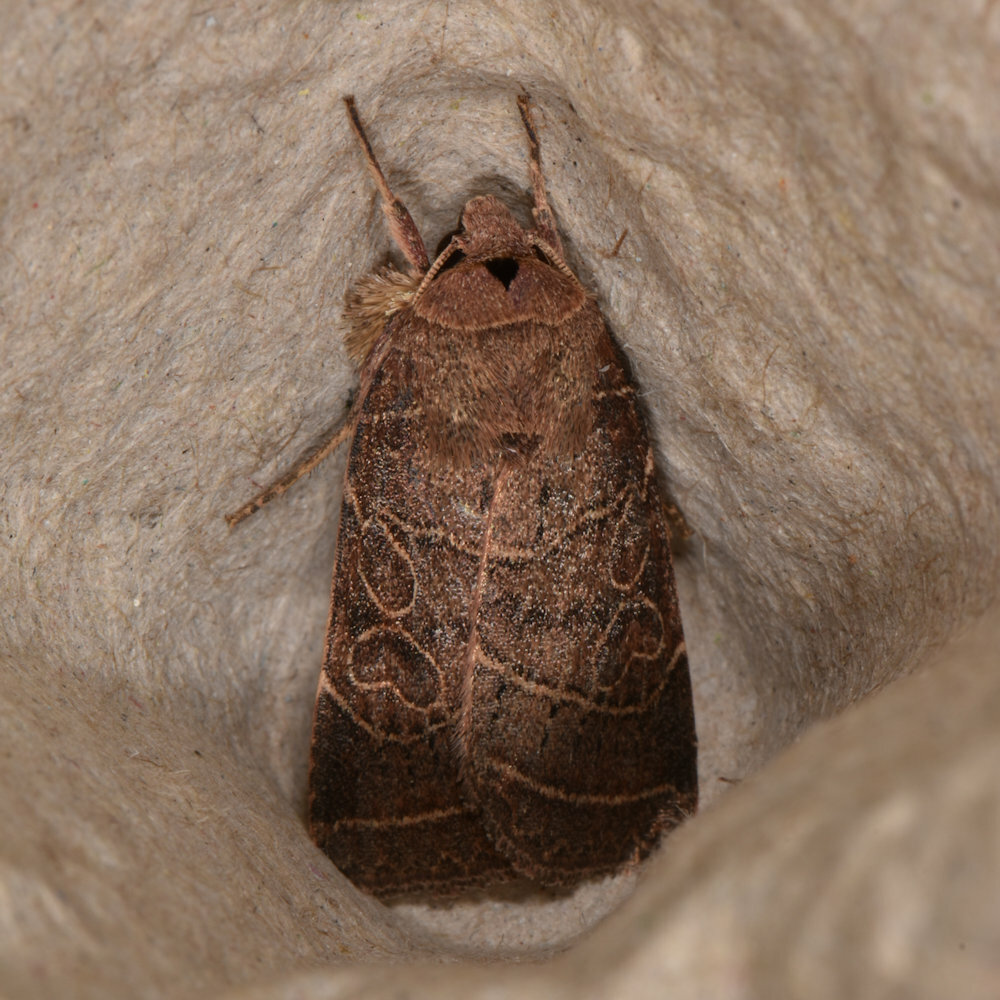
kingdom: Animalia
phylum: Arthropoda
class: Insecta
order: Lepidoptera
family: Noctuidae
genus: Orthodes
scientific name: Orthodes majuscula
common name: Rustic quaker
